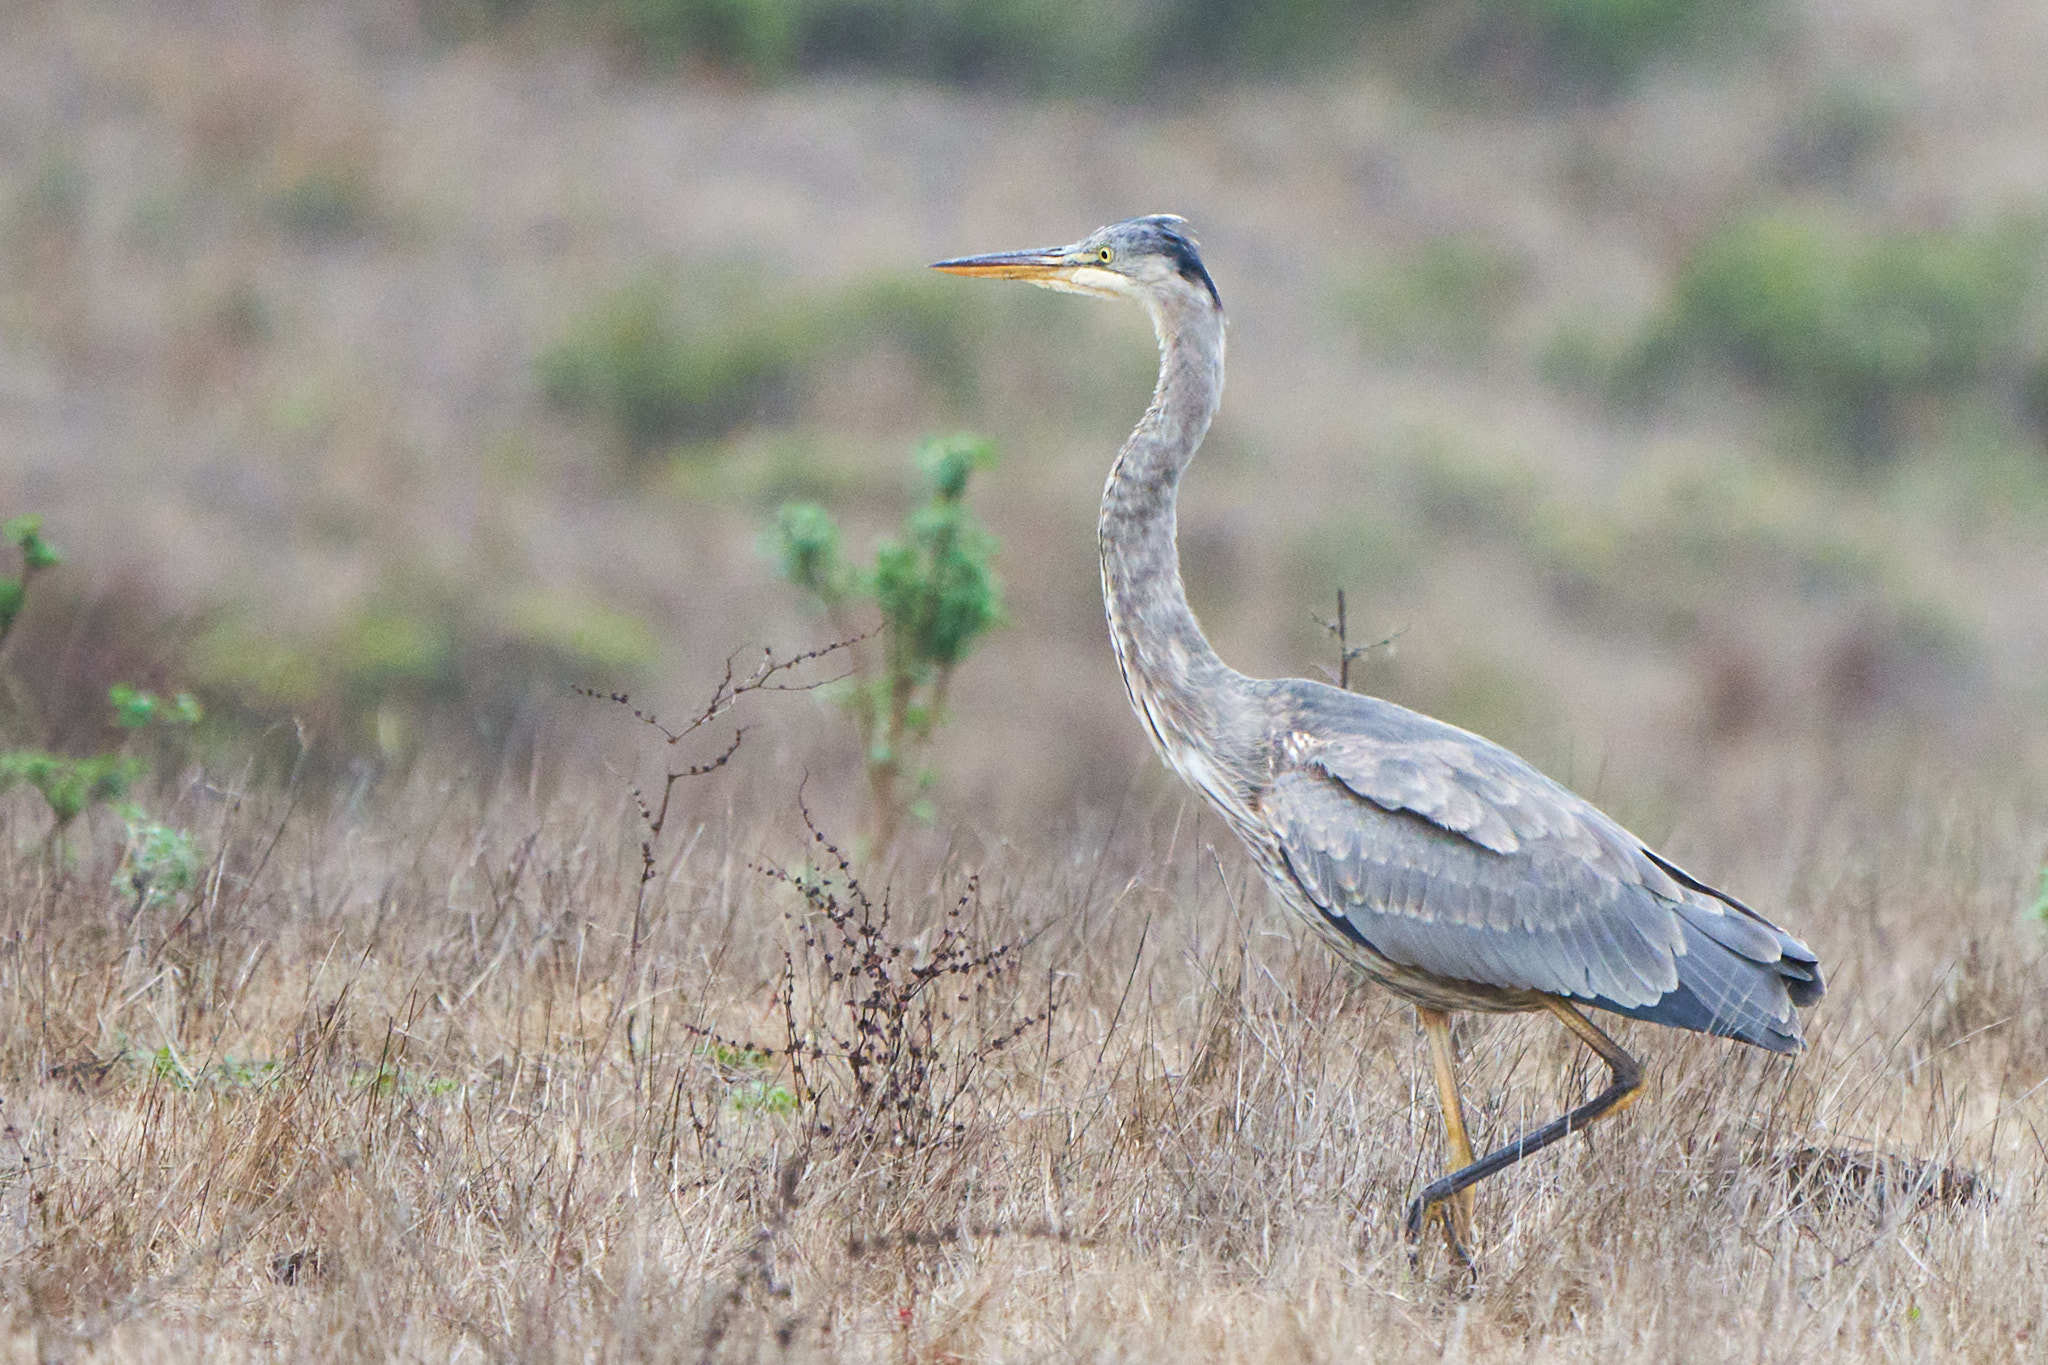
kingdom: Animalia
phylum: Chordata
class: Aves
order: Pelecaniformes
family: Ardeidae
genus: Ardea
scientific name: Ardea herodias
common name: Great blue heron
